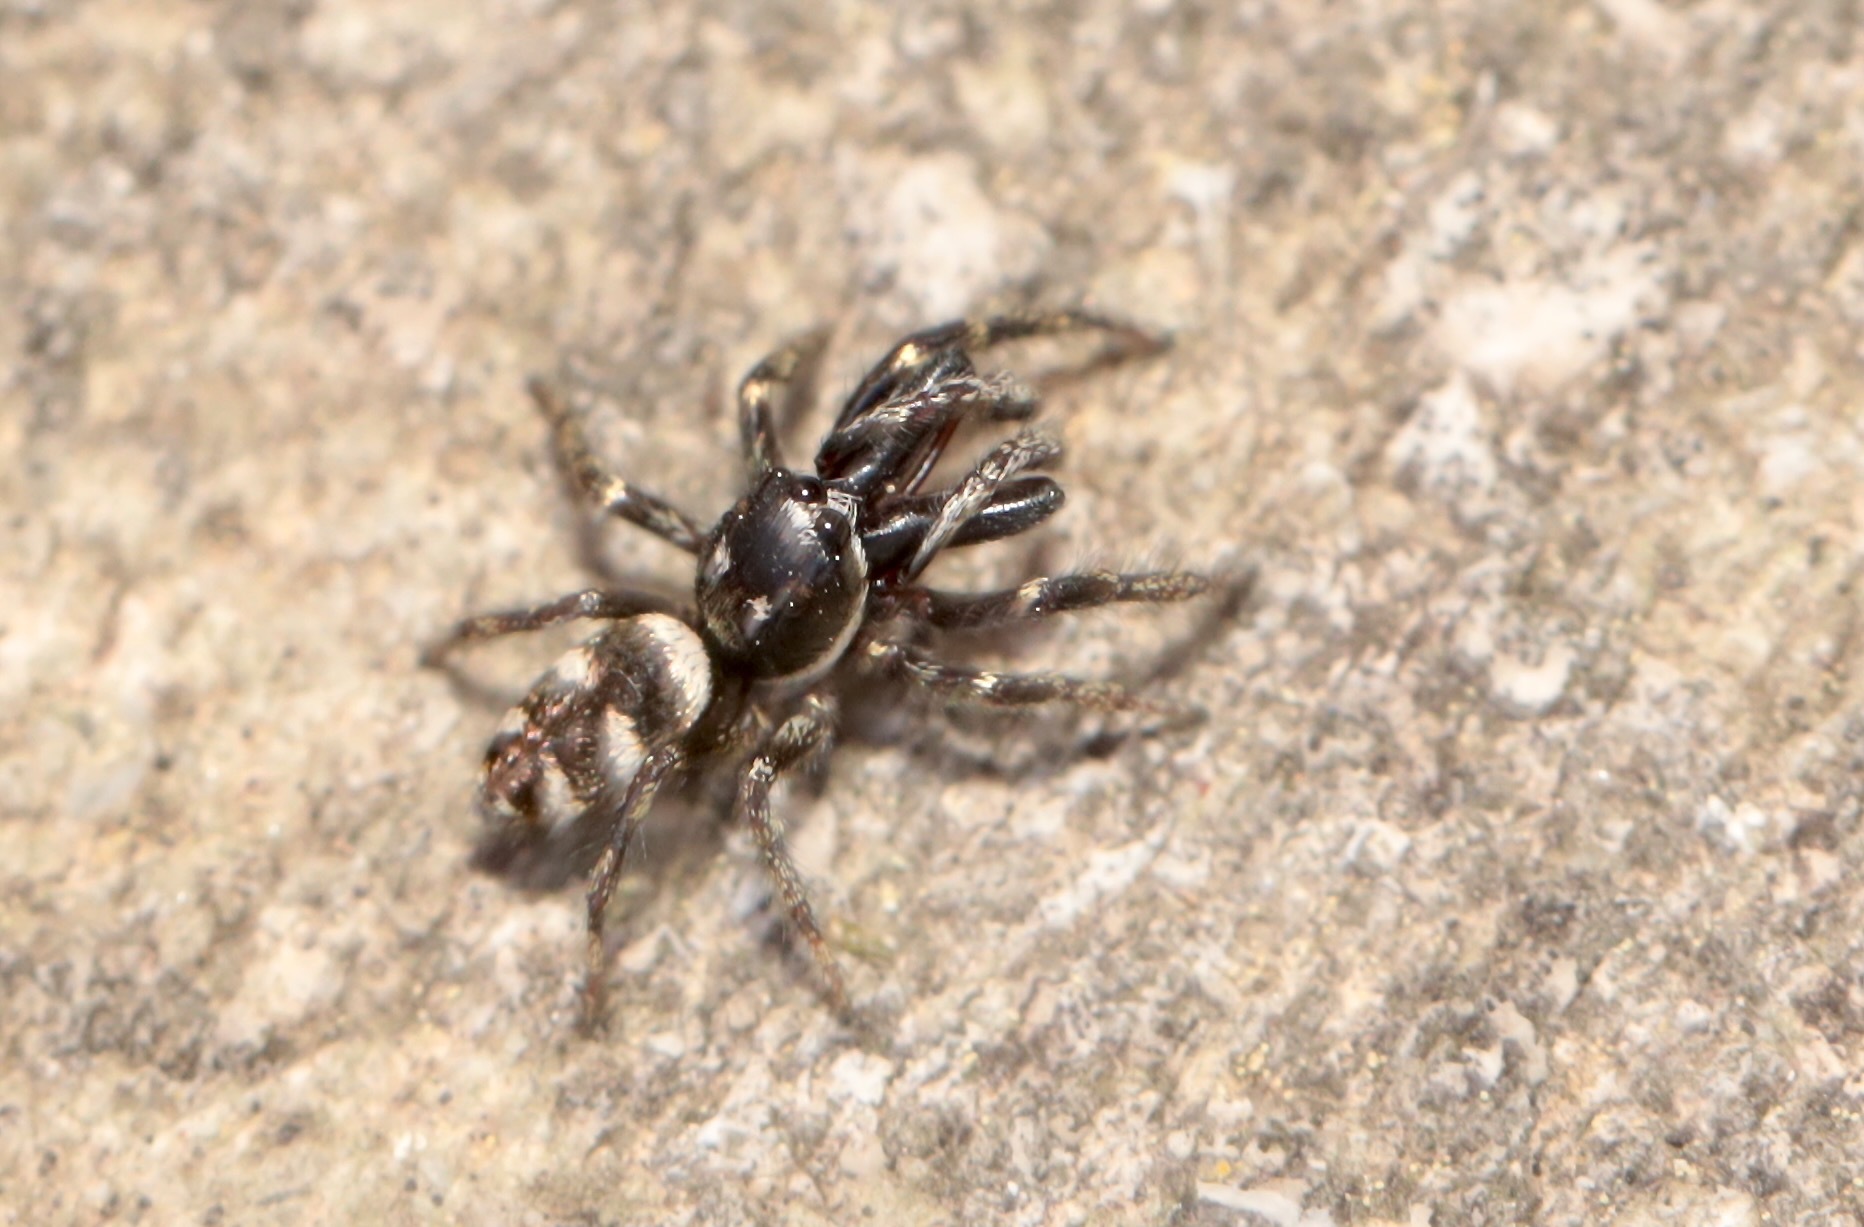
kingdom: Animalia
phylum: Arthropoda
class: Arachnida
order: Araneae
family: Salticidae
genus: Salticus
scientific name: Salticus scenicus
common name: Zebra jumper
